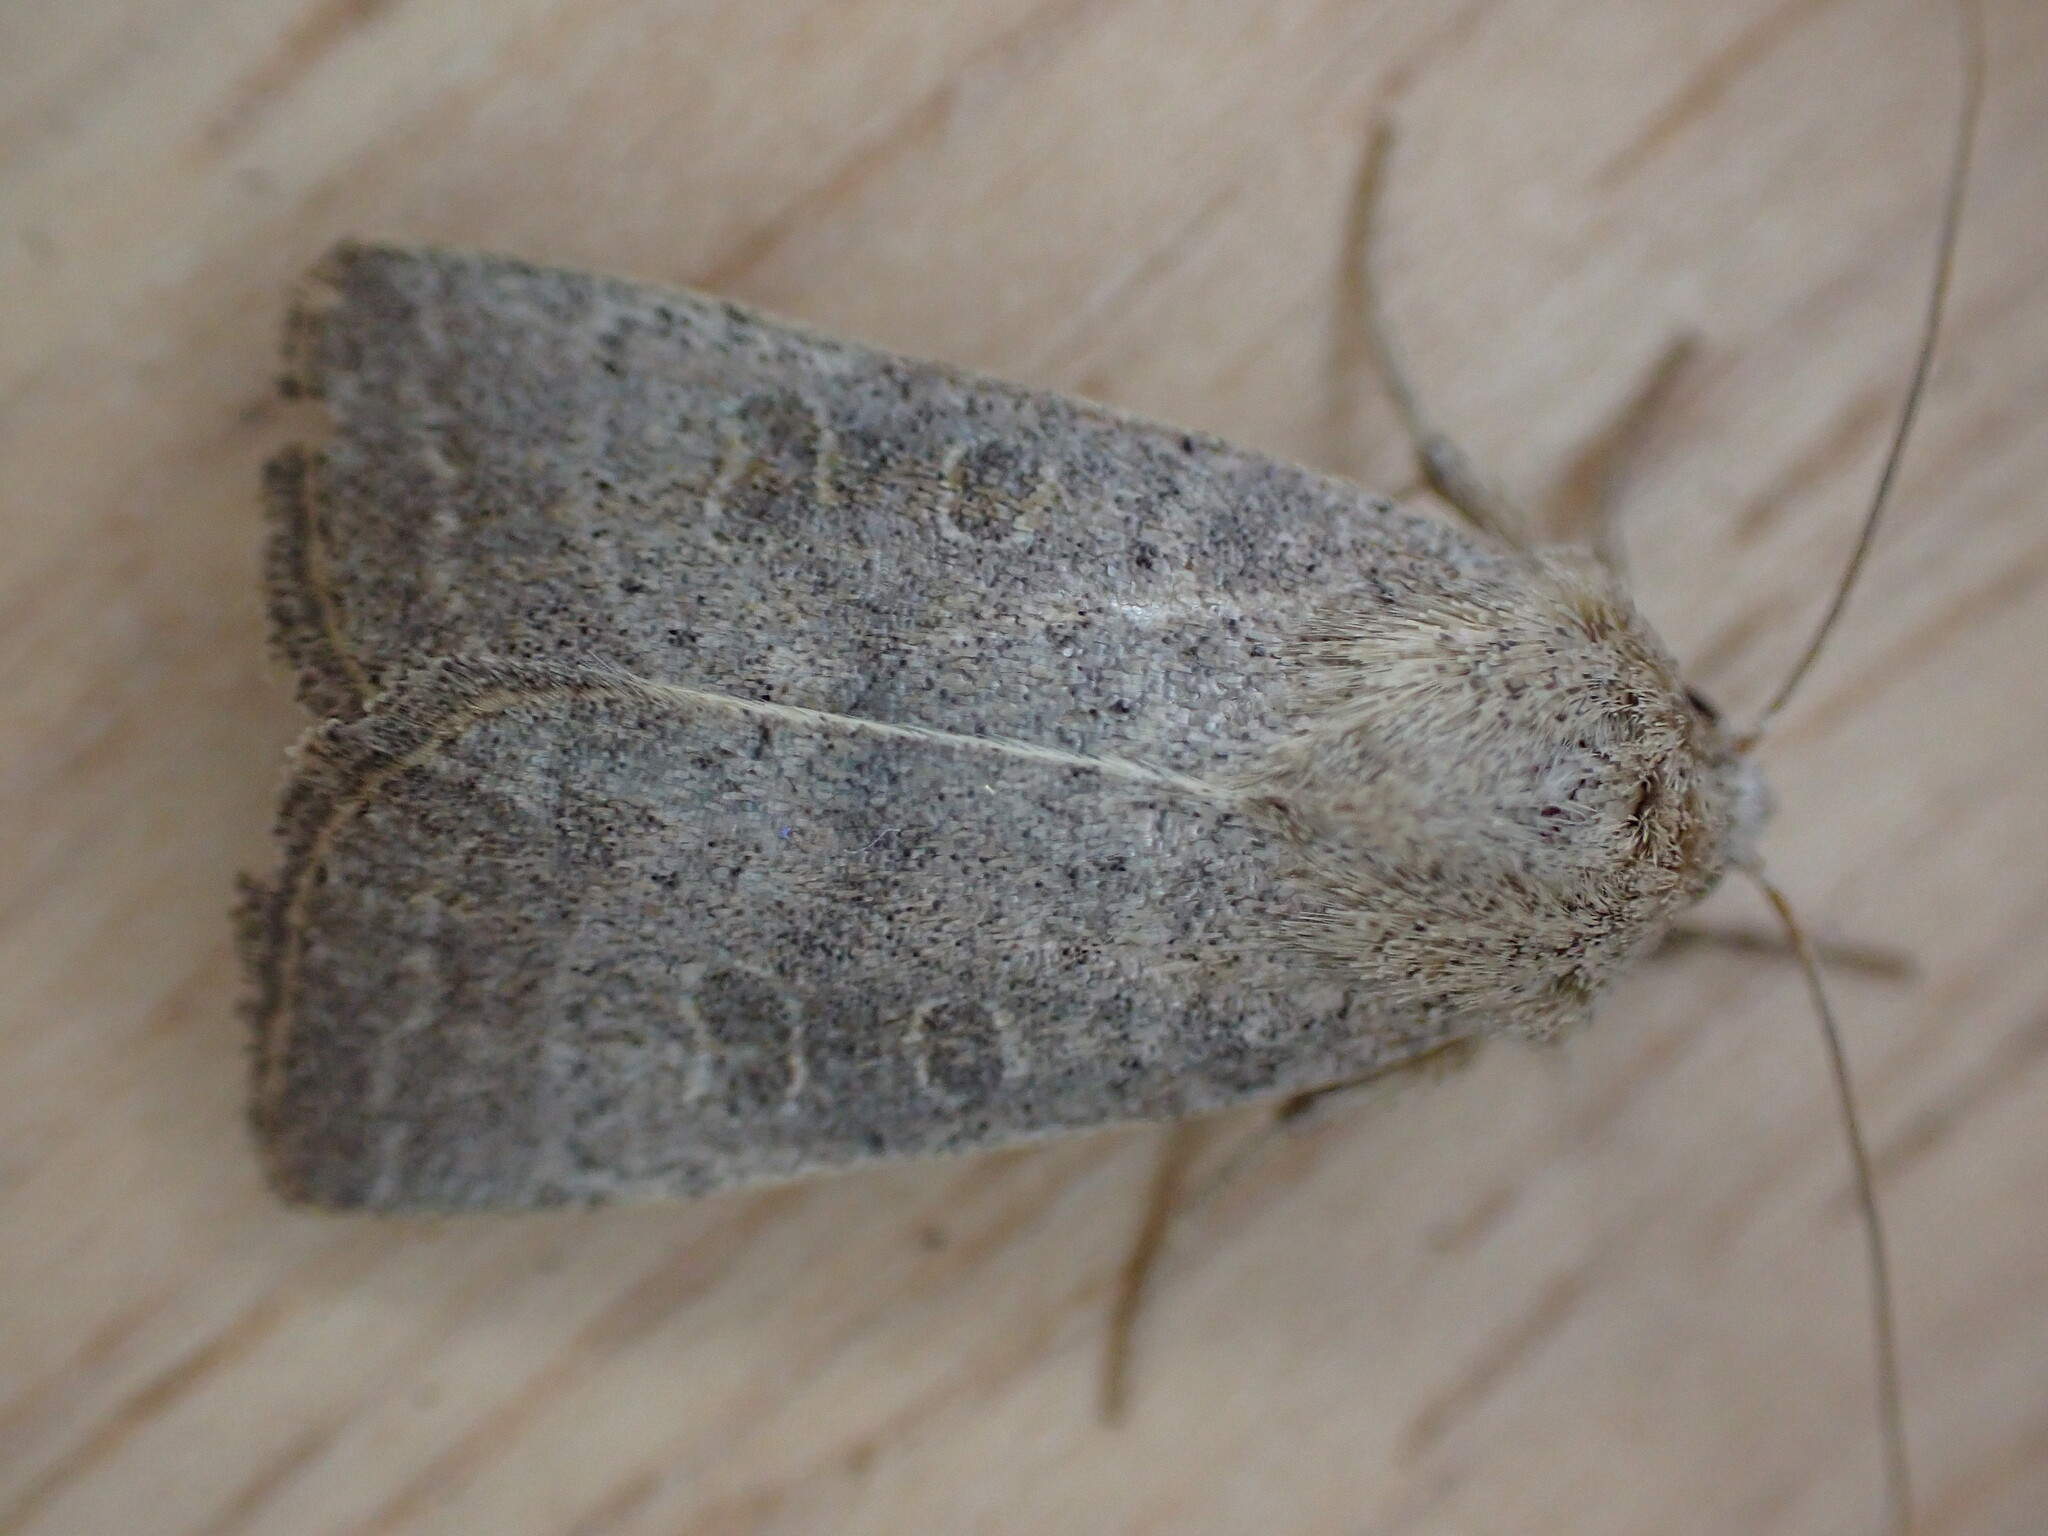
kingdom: Animalia
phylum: Arthropoda
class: Insecta
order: Lepidoptera
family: Noctuidae
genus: Hoplodrina
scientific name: Hoplodrina ambigua
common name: Vine's rustic
